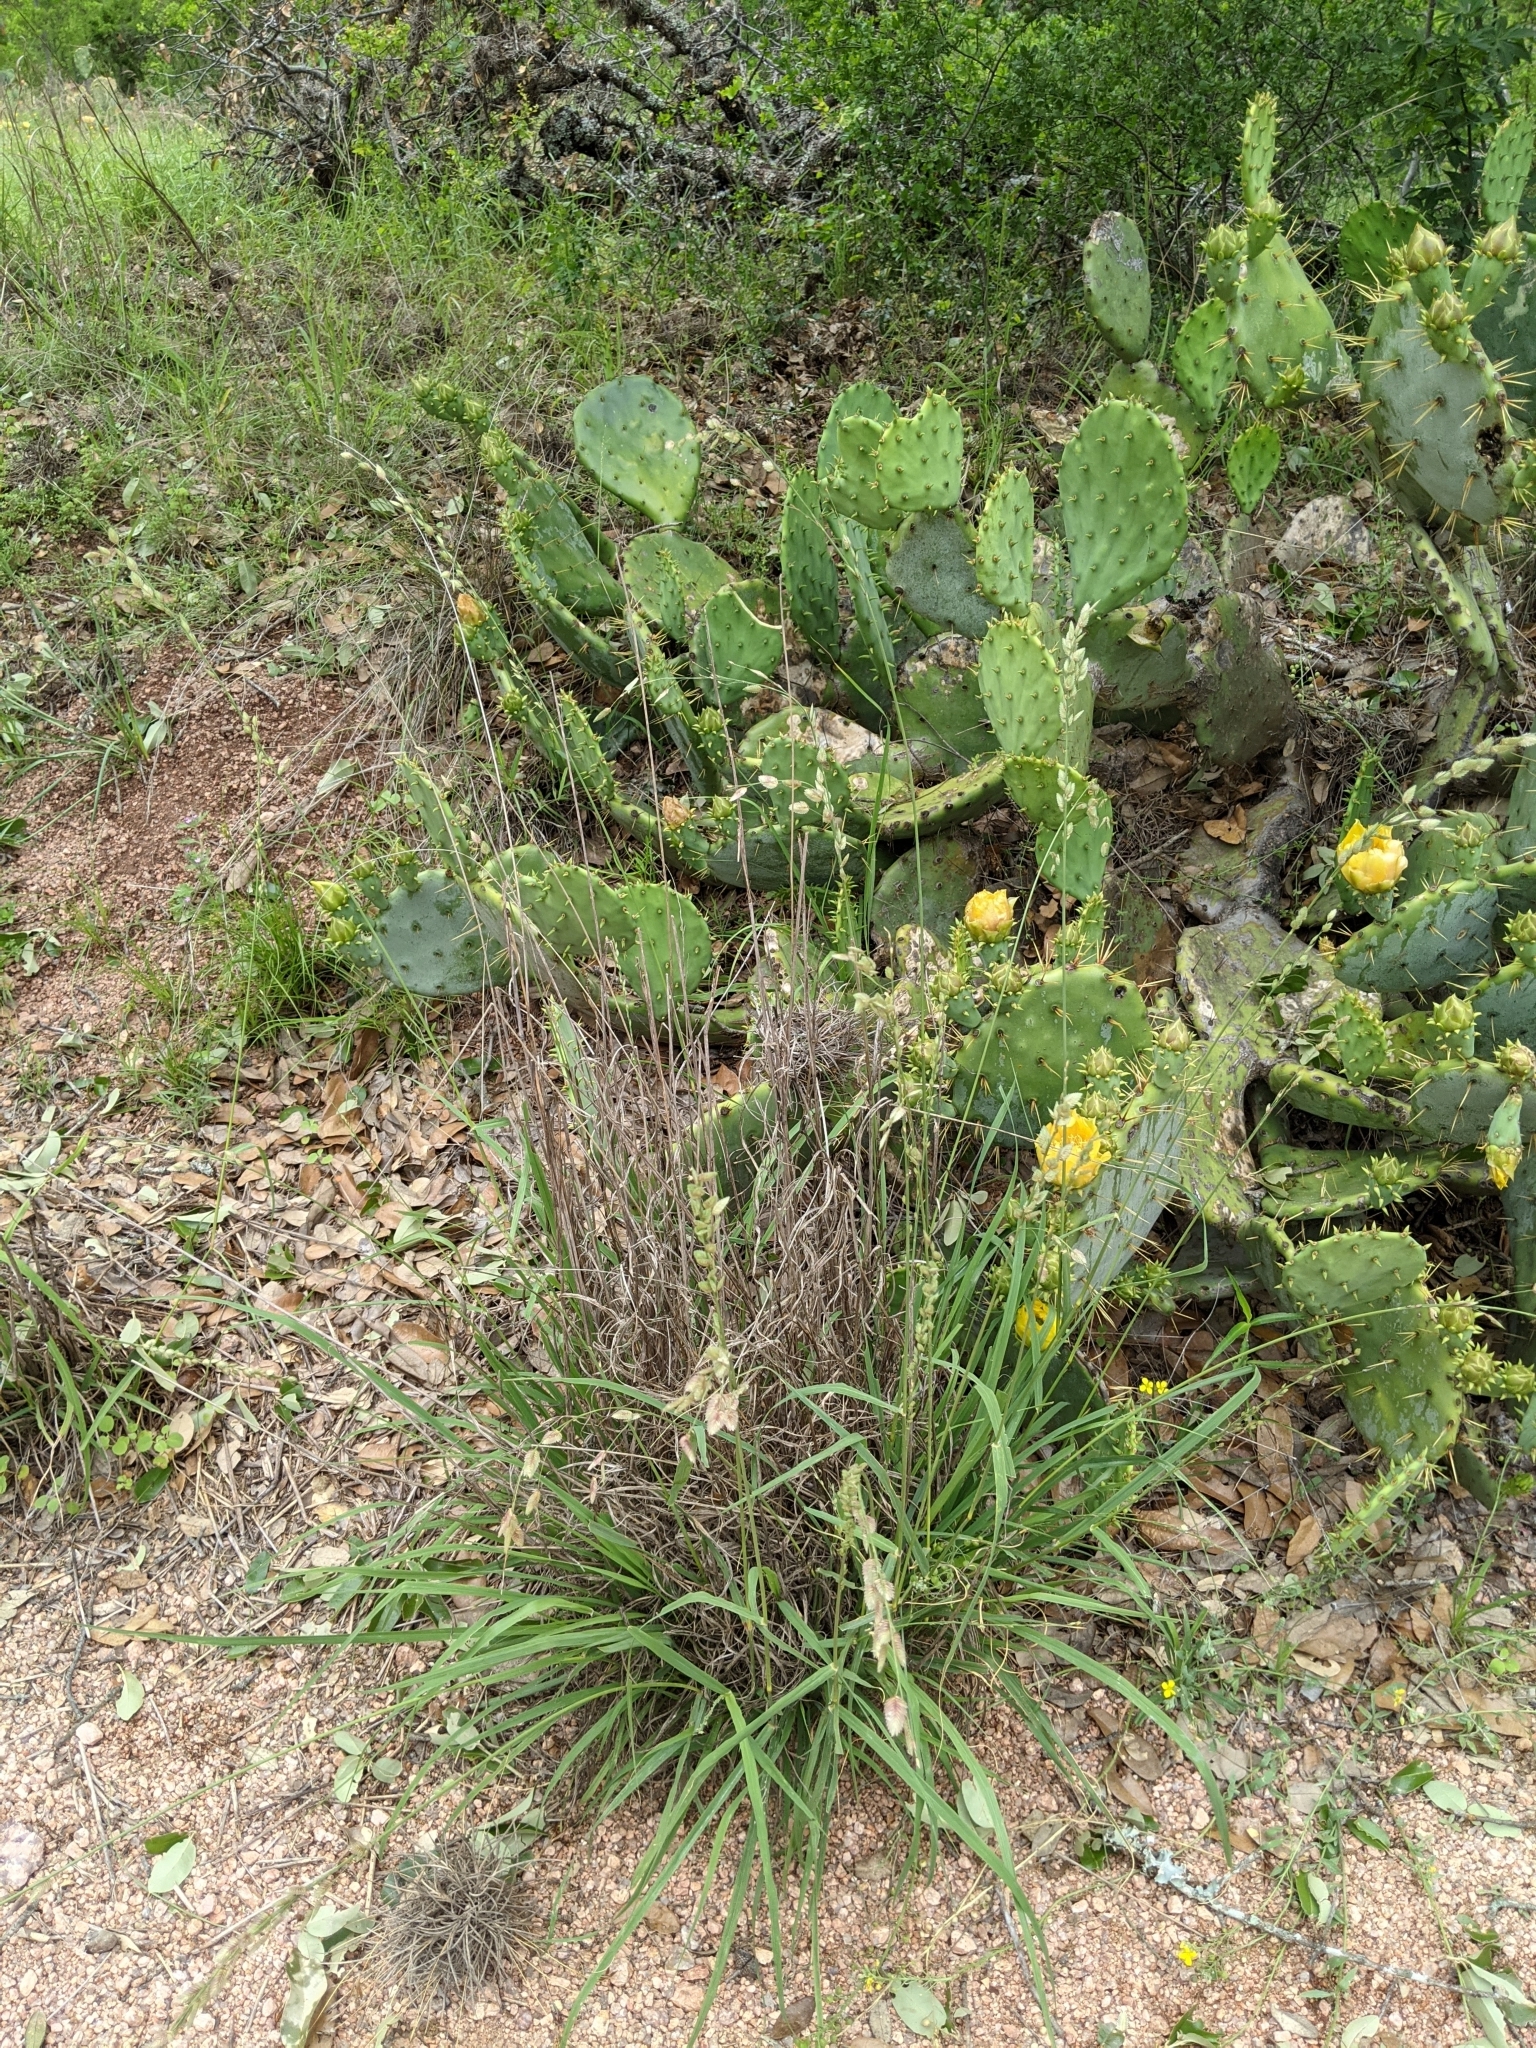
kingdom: Plantae
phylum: Tracheophyta
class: Liliopsida
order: Poales
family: Poaceae
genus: Eragrostis
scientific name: Eragrostis superba
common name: Wilman lovegrass
